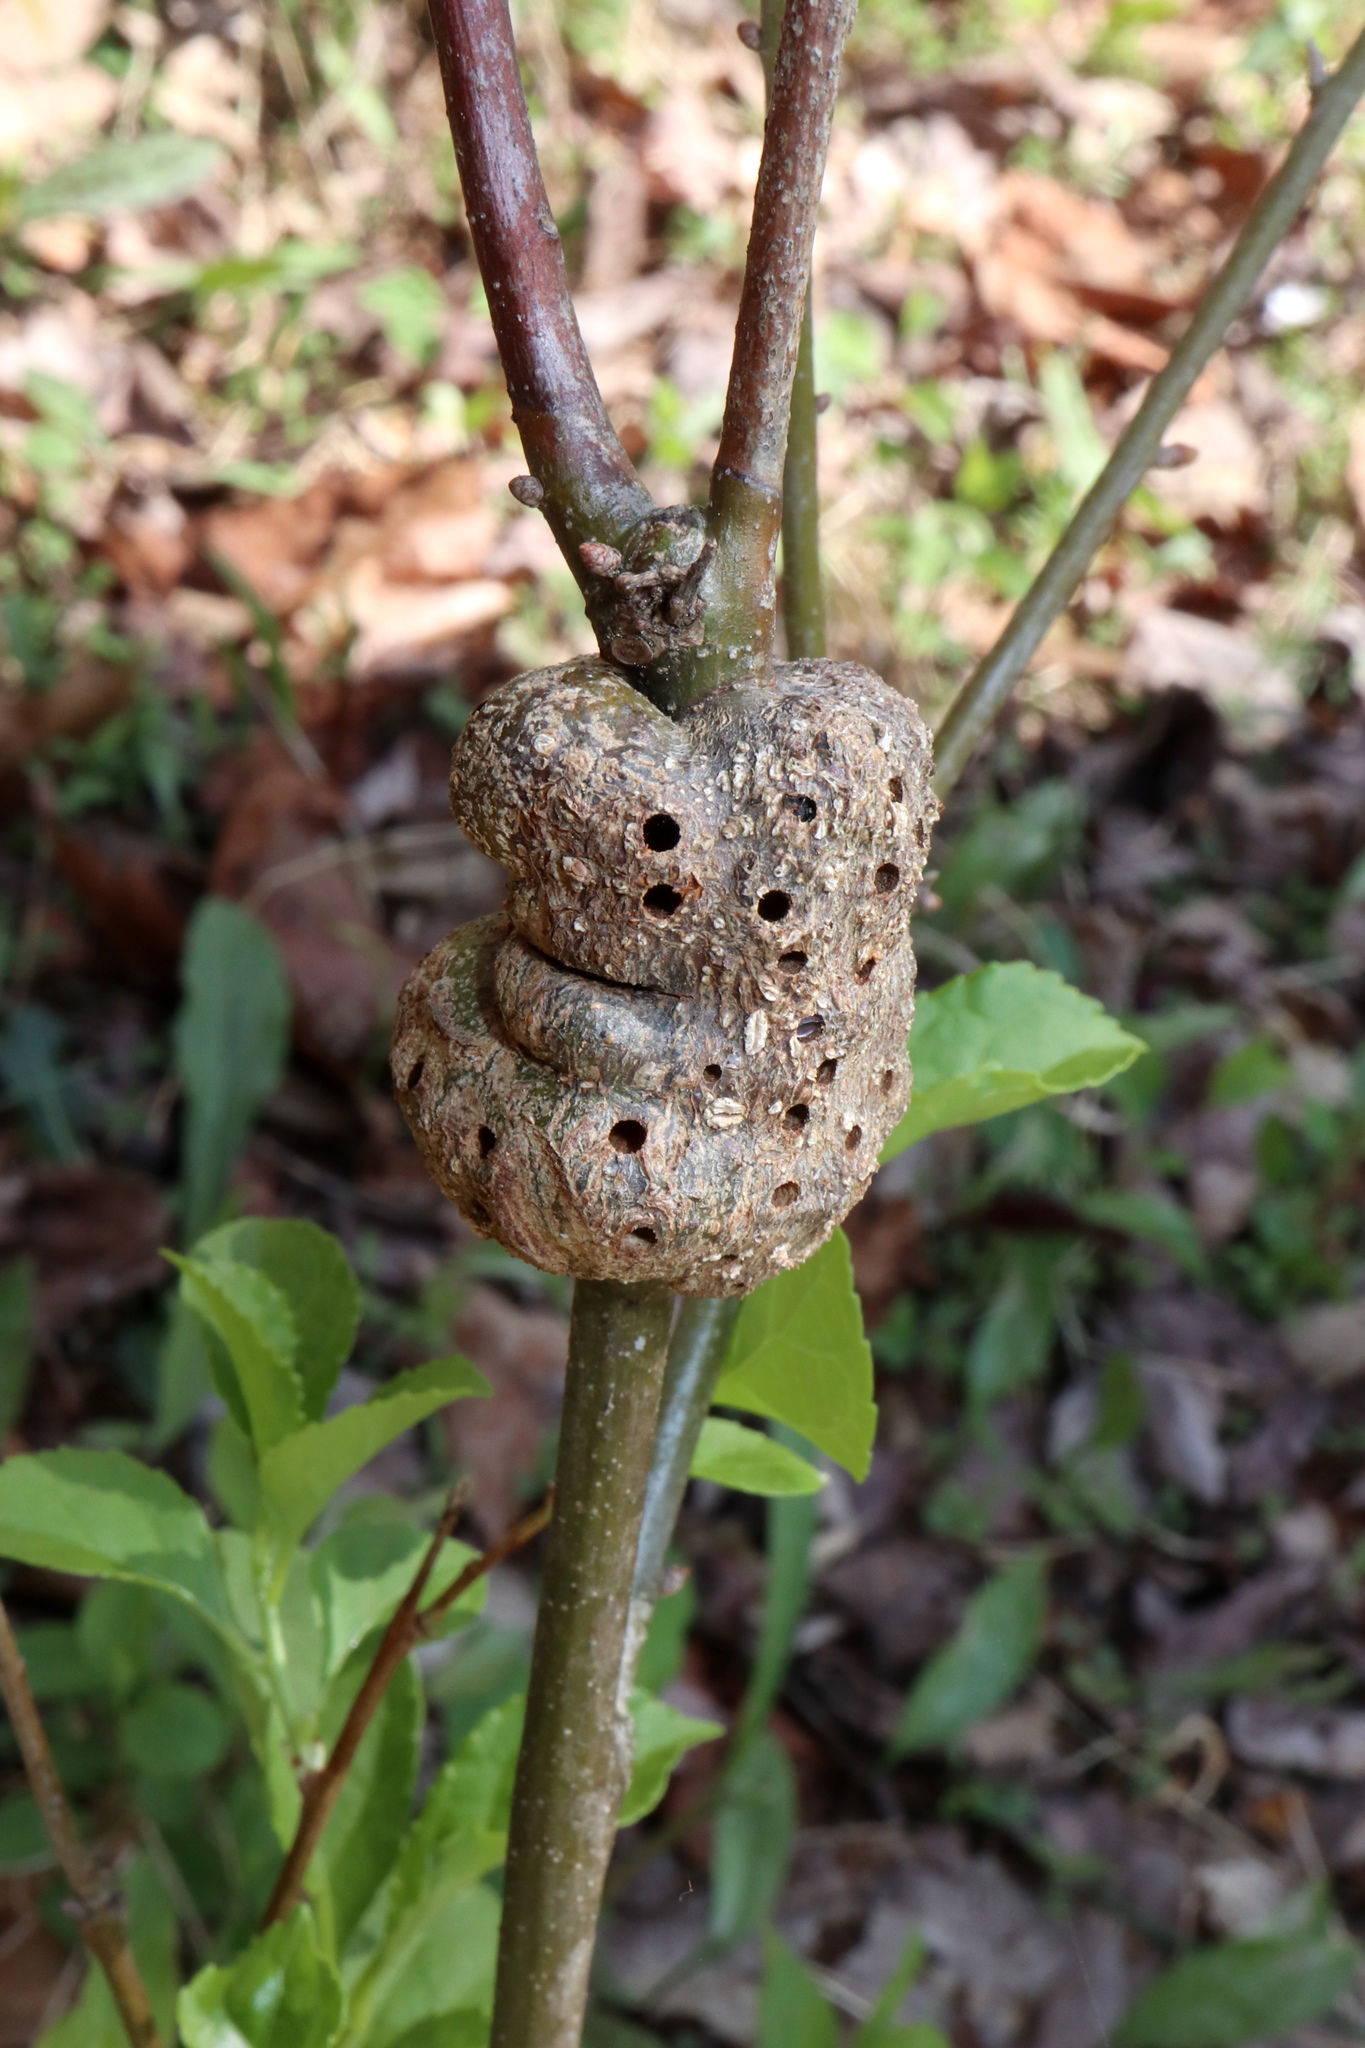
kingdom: Animalia
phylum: Arthropoda
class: Insecta
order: Hymenoptera
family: Cynipidae
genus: Callirhytis
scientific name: Callirhytis
